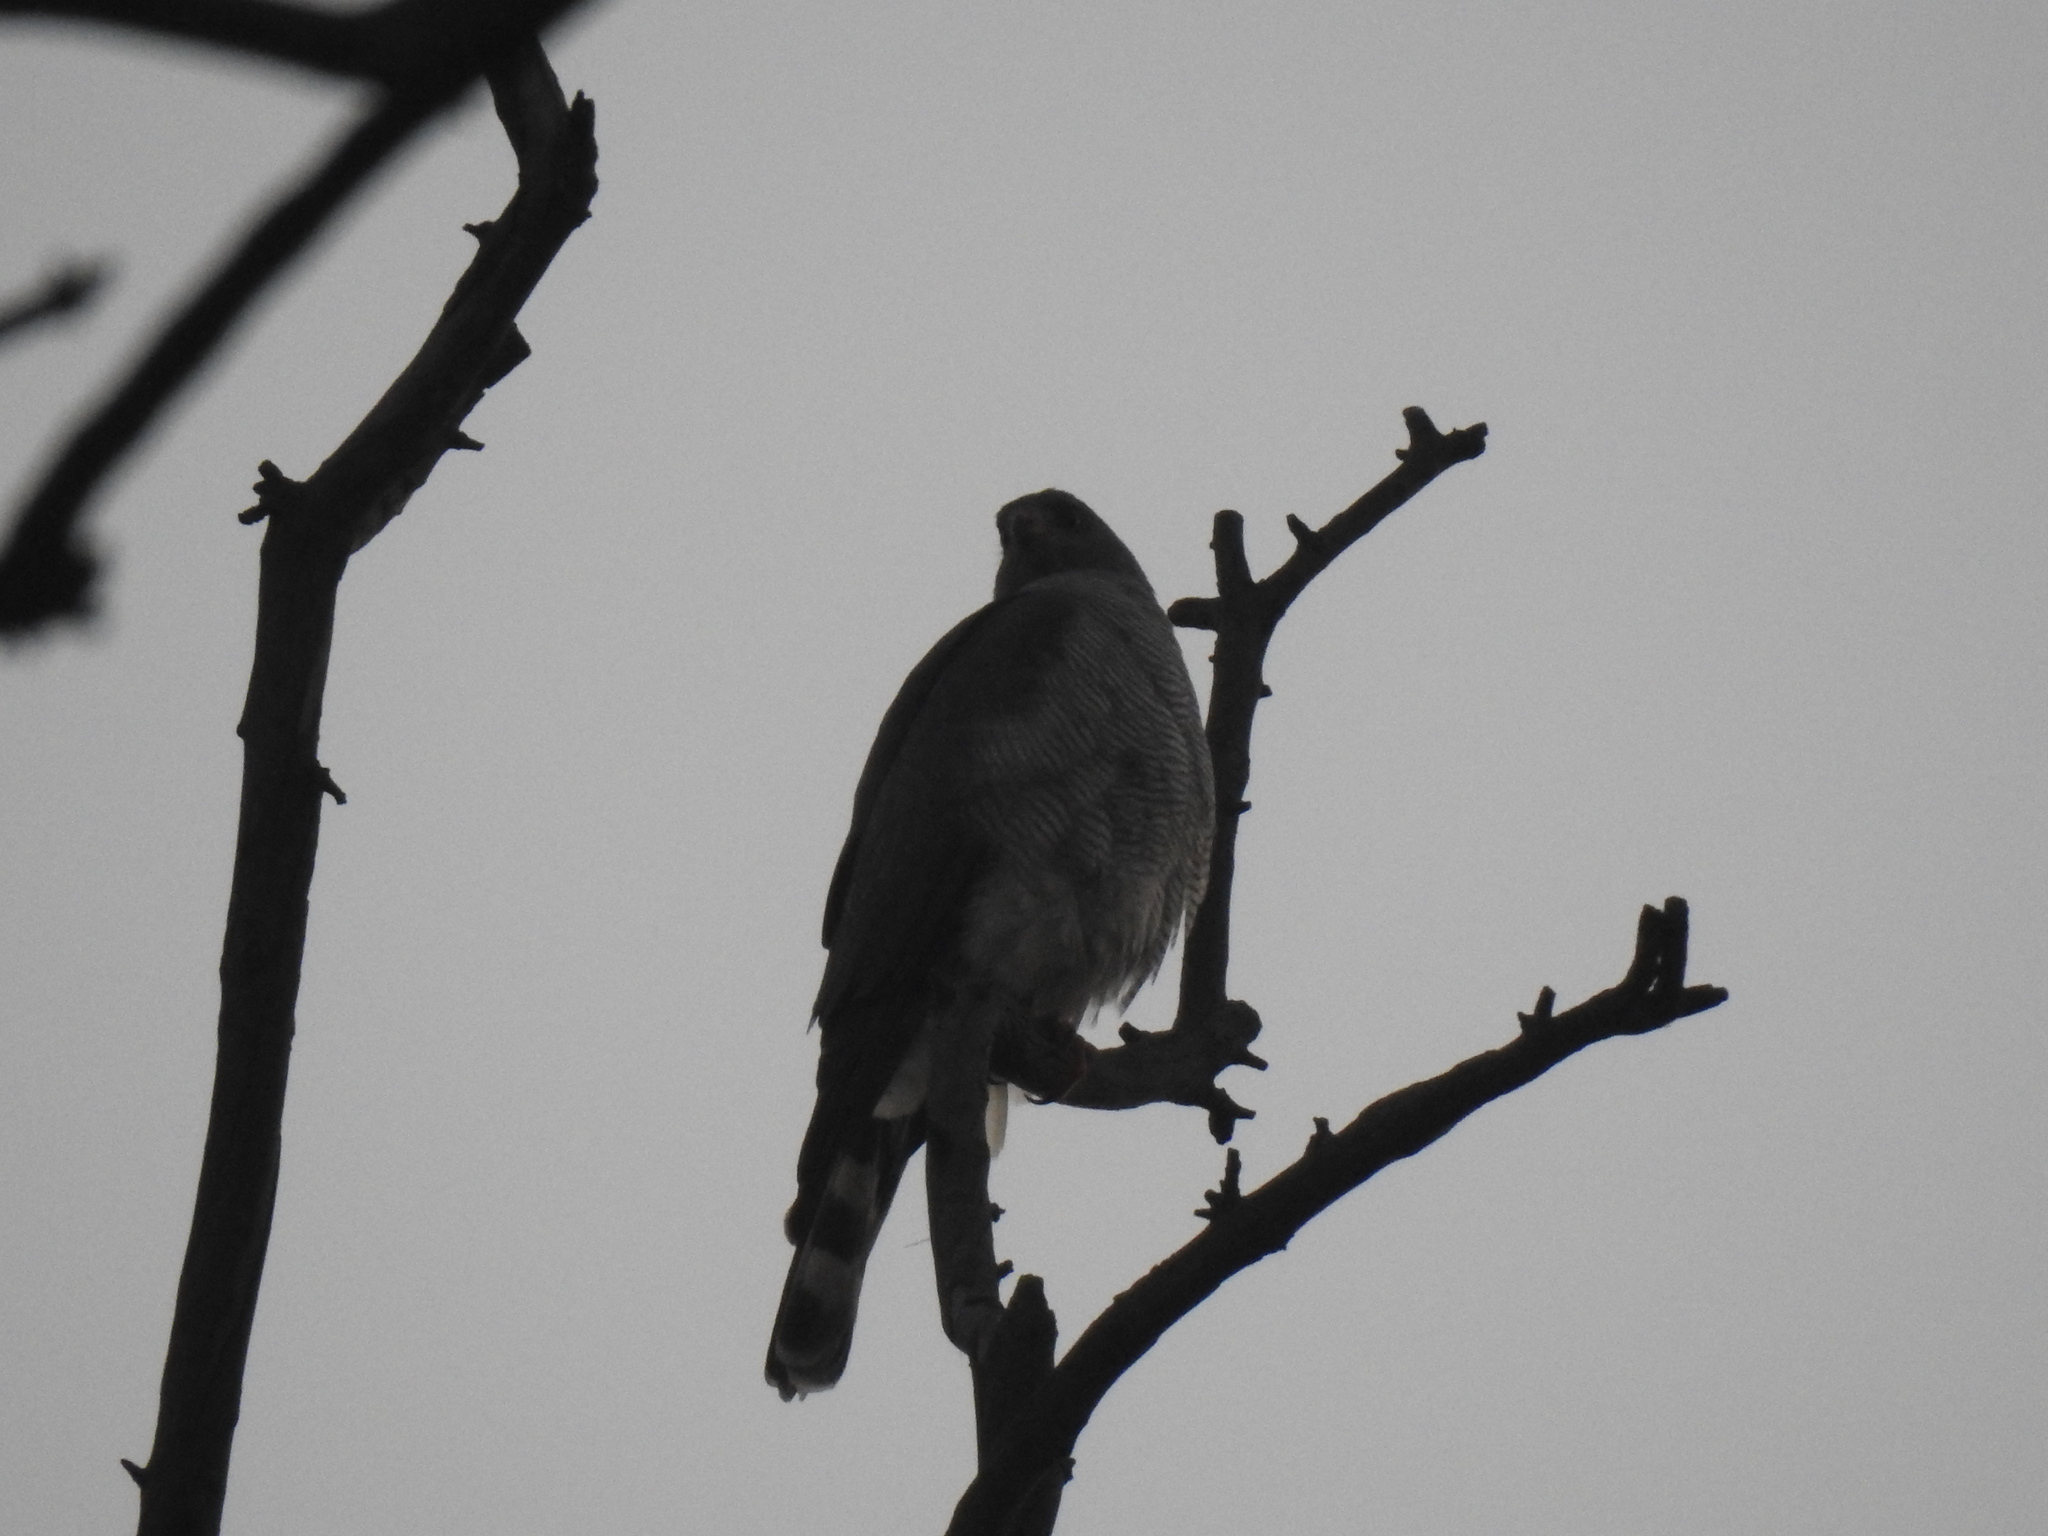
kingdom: Animalia
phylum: Chordata
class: Aves
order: Accipitriformes
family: Accipitridae
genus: Accipiter
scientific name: Accipiter ovampensis
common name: Ovambo sparrowhawk
